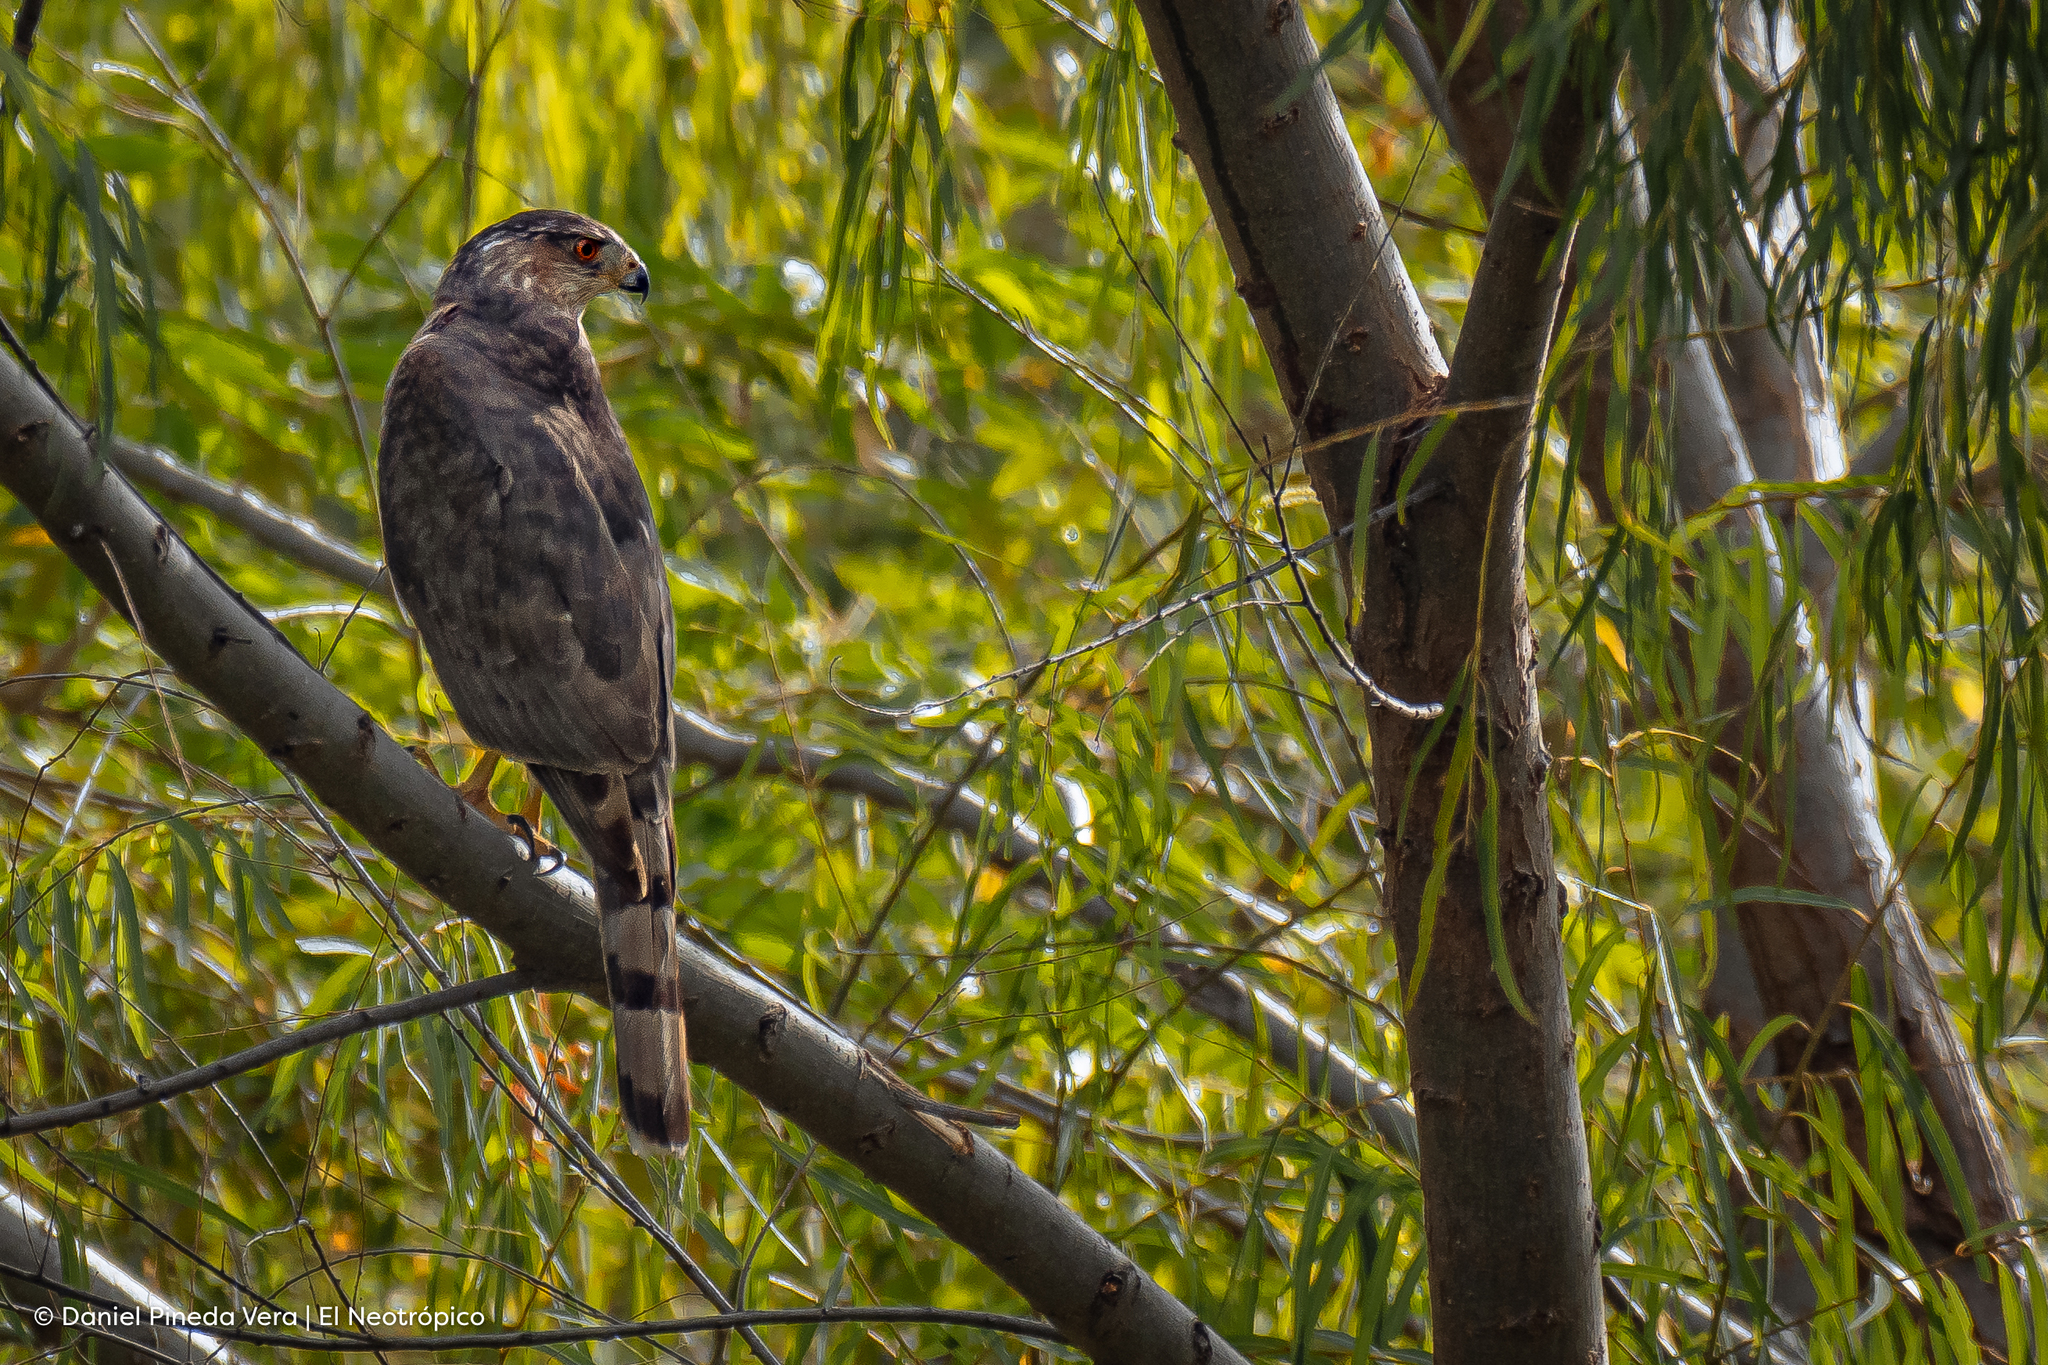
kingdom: Animalia
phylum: Chordata
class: Aves
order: Accipitriformes
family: Accipitridae
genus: Accipiter
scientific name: Accipiter cooperii
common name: Cooper's hawk
